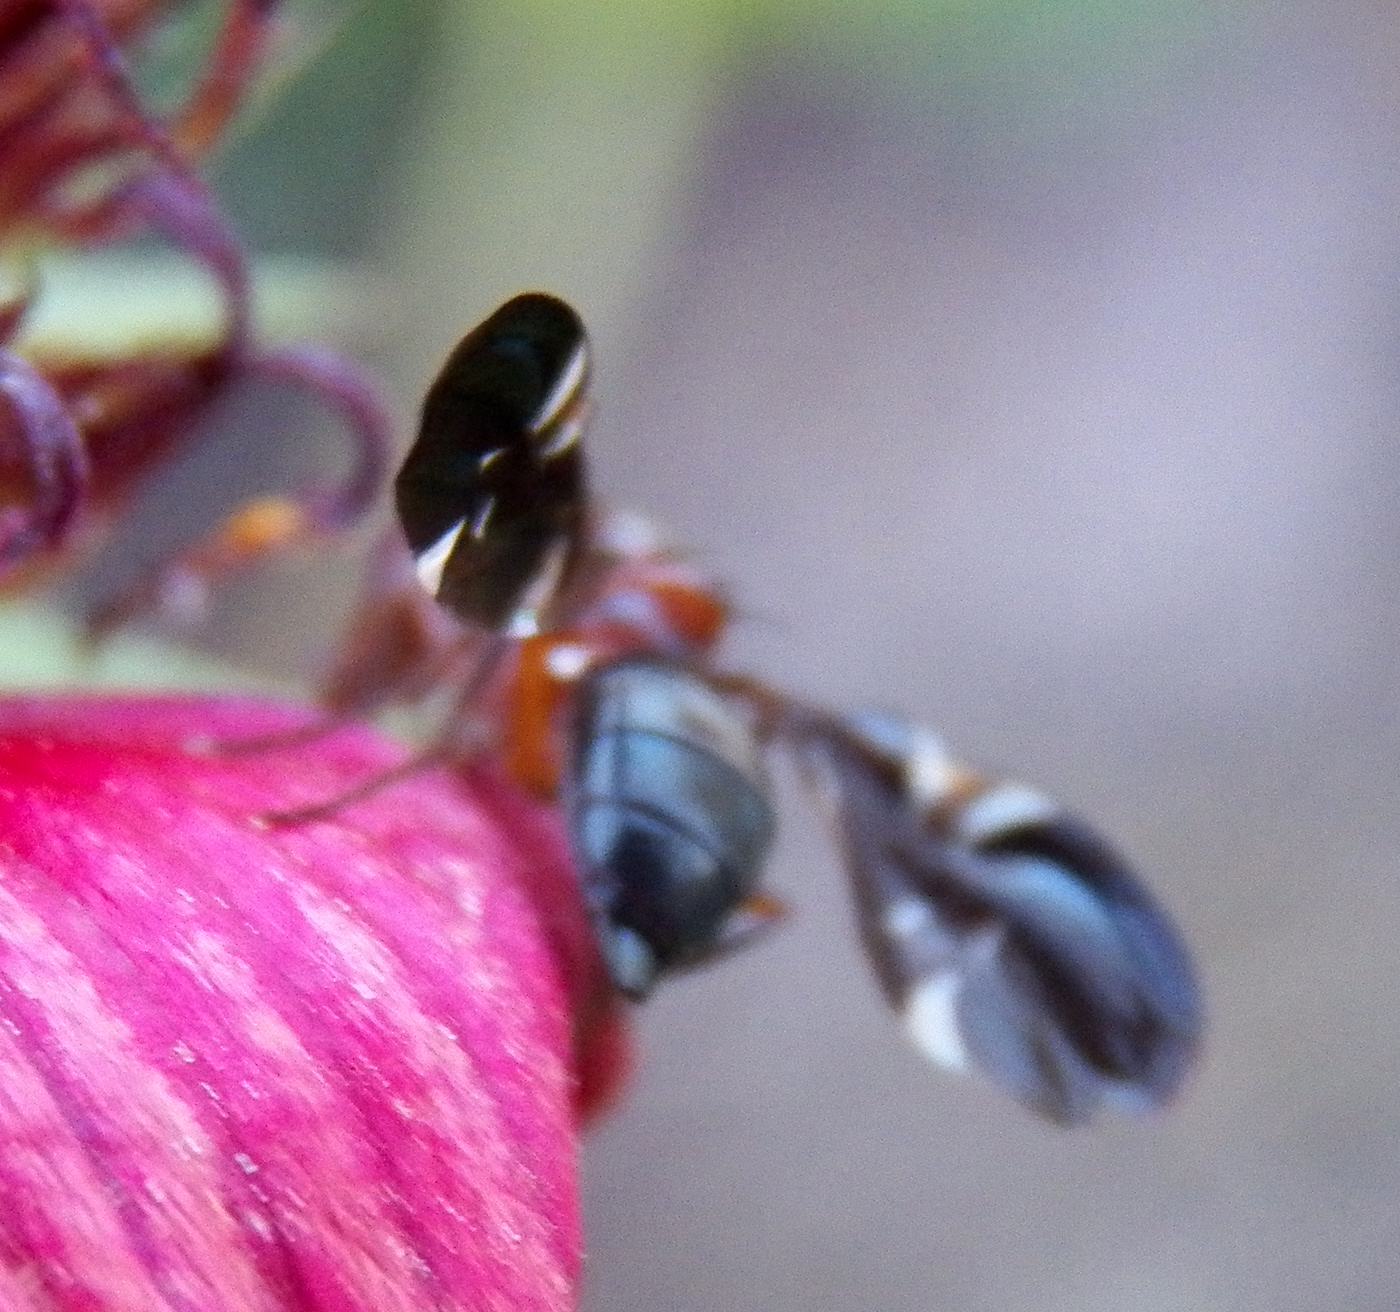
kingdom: Animalia
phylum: Arthropoda
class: Insecta
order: Diptera
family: Ulidiidae
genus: Delphinia
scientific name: Delphinia picta
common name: Common picture-winged fly
